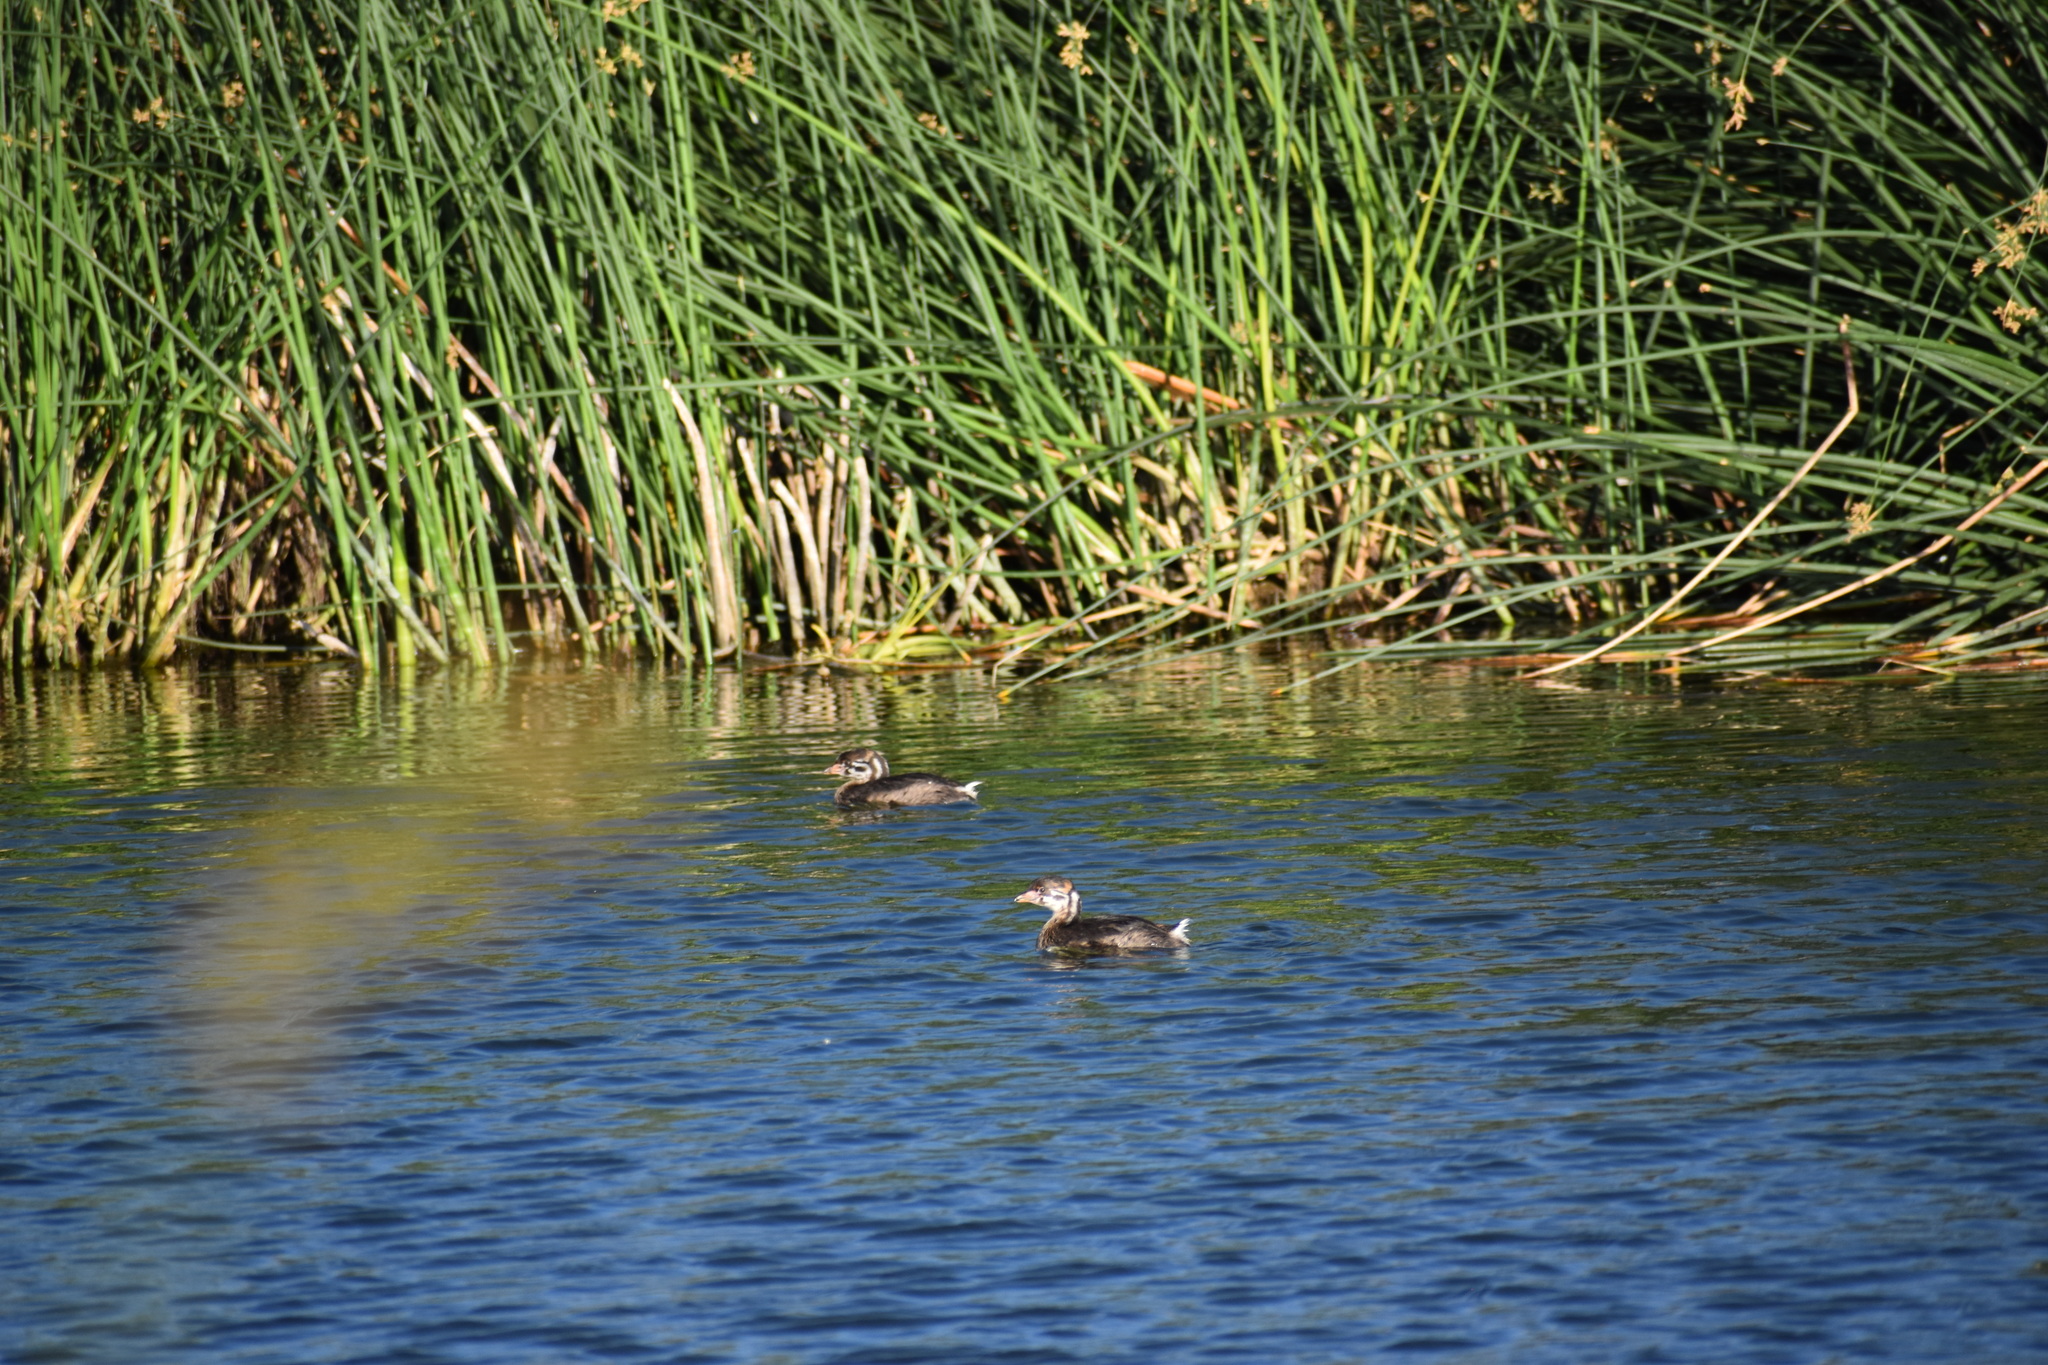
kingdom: Animalia
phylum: Chordata
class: Aves
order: Podicipediformes
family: Podicipedidae
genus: Podilymbus
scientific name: Podilymbus podiceps
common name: Pied-billed grebe
